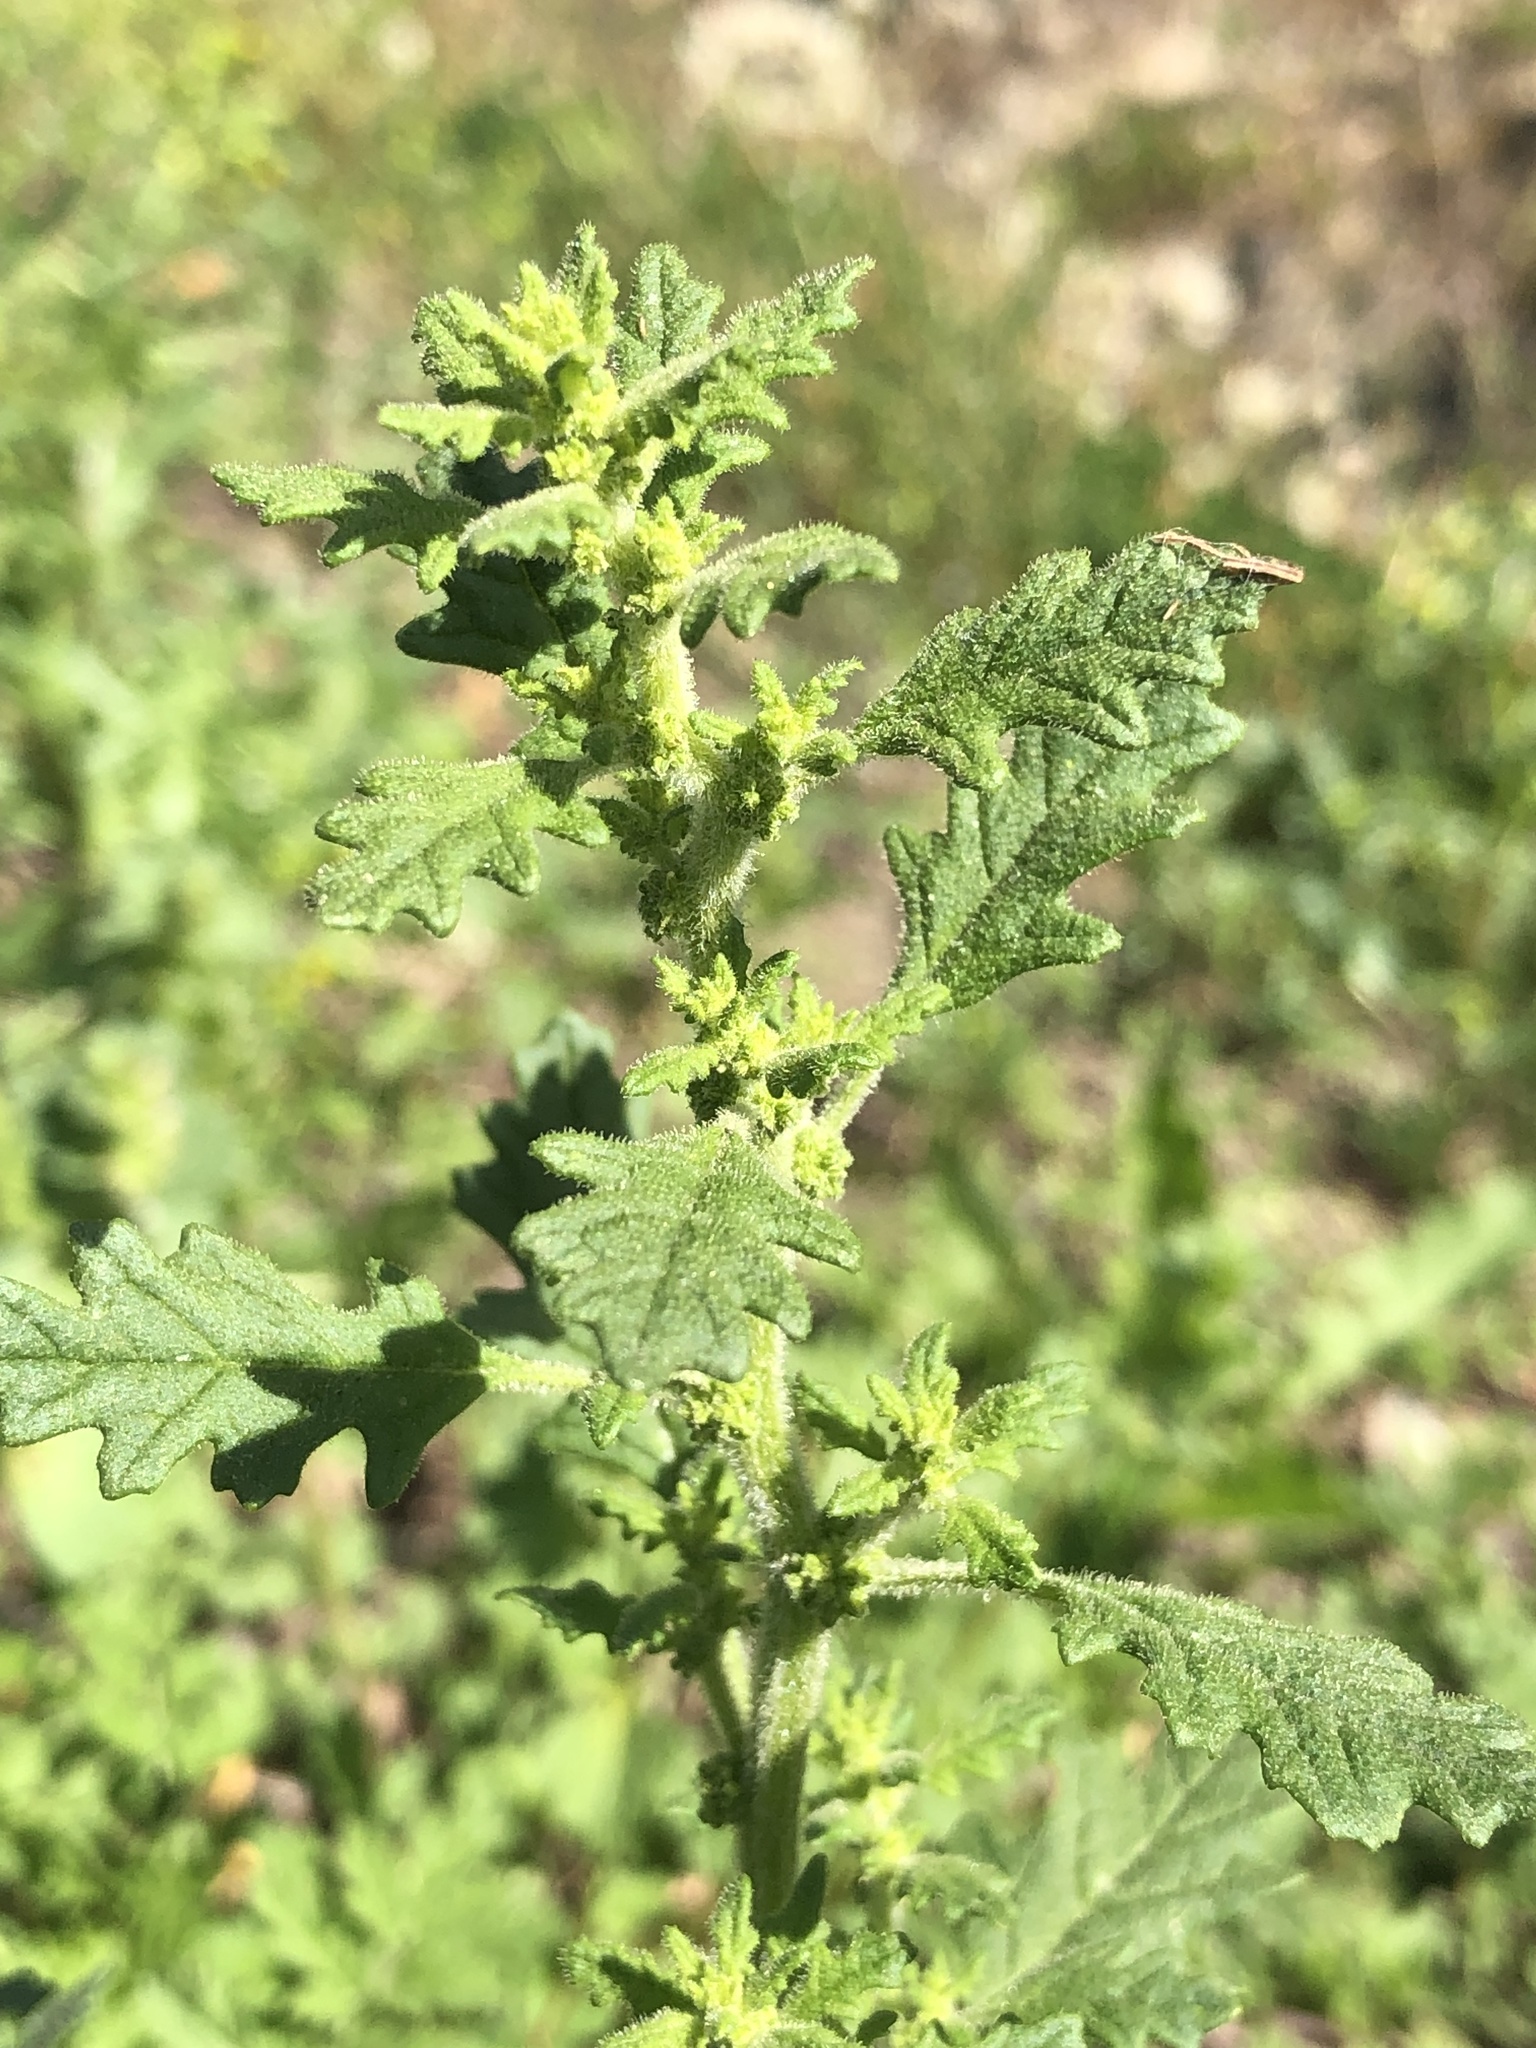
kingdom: Plantae
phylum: Tracheophyta
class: Magnoliopsida
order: Caryophyllales
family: Amaranthaceae
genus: Dysphania
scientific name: Dysphania pumilio
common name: Clammy goosefoot
